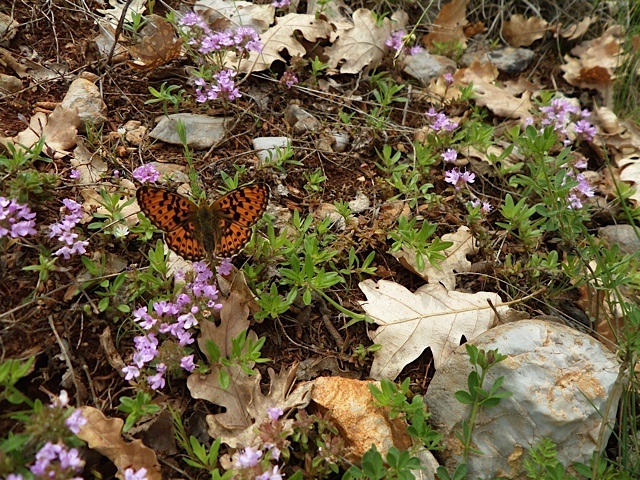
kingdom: Animalia
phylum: Arthropoda
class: Insecta
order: Lepidoptera
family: Nymphalidae
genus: Clossiana
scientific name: Clossiana euphrosyne
